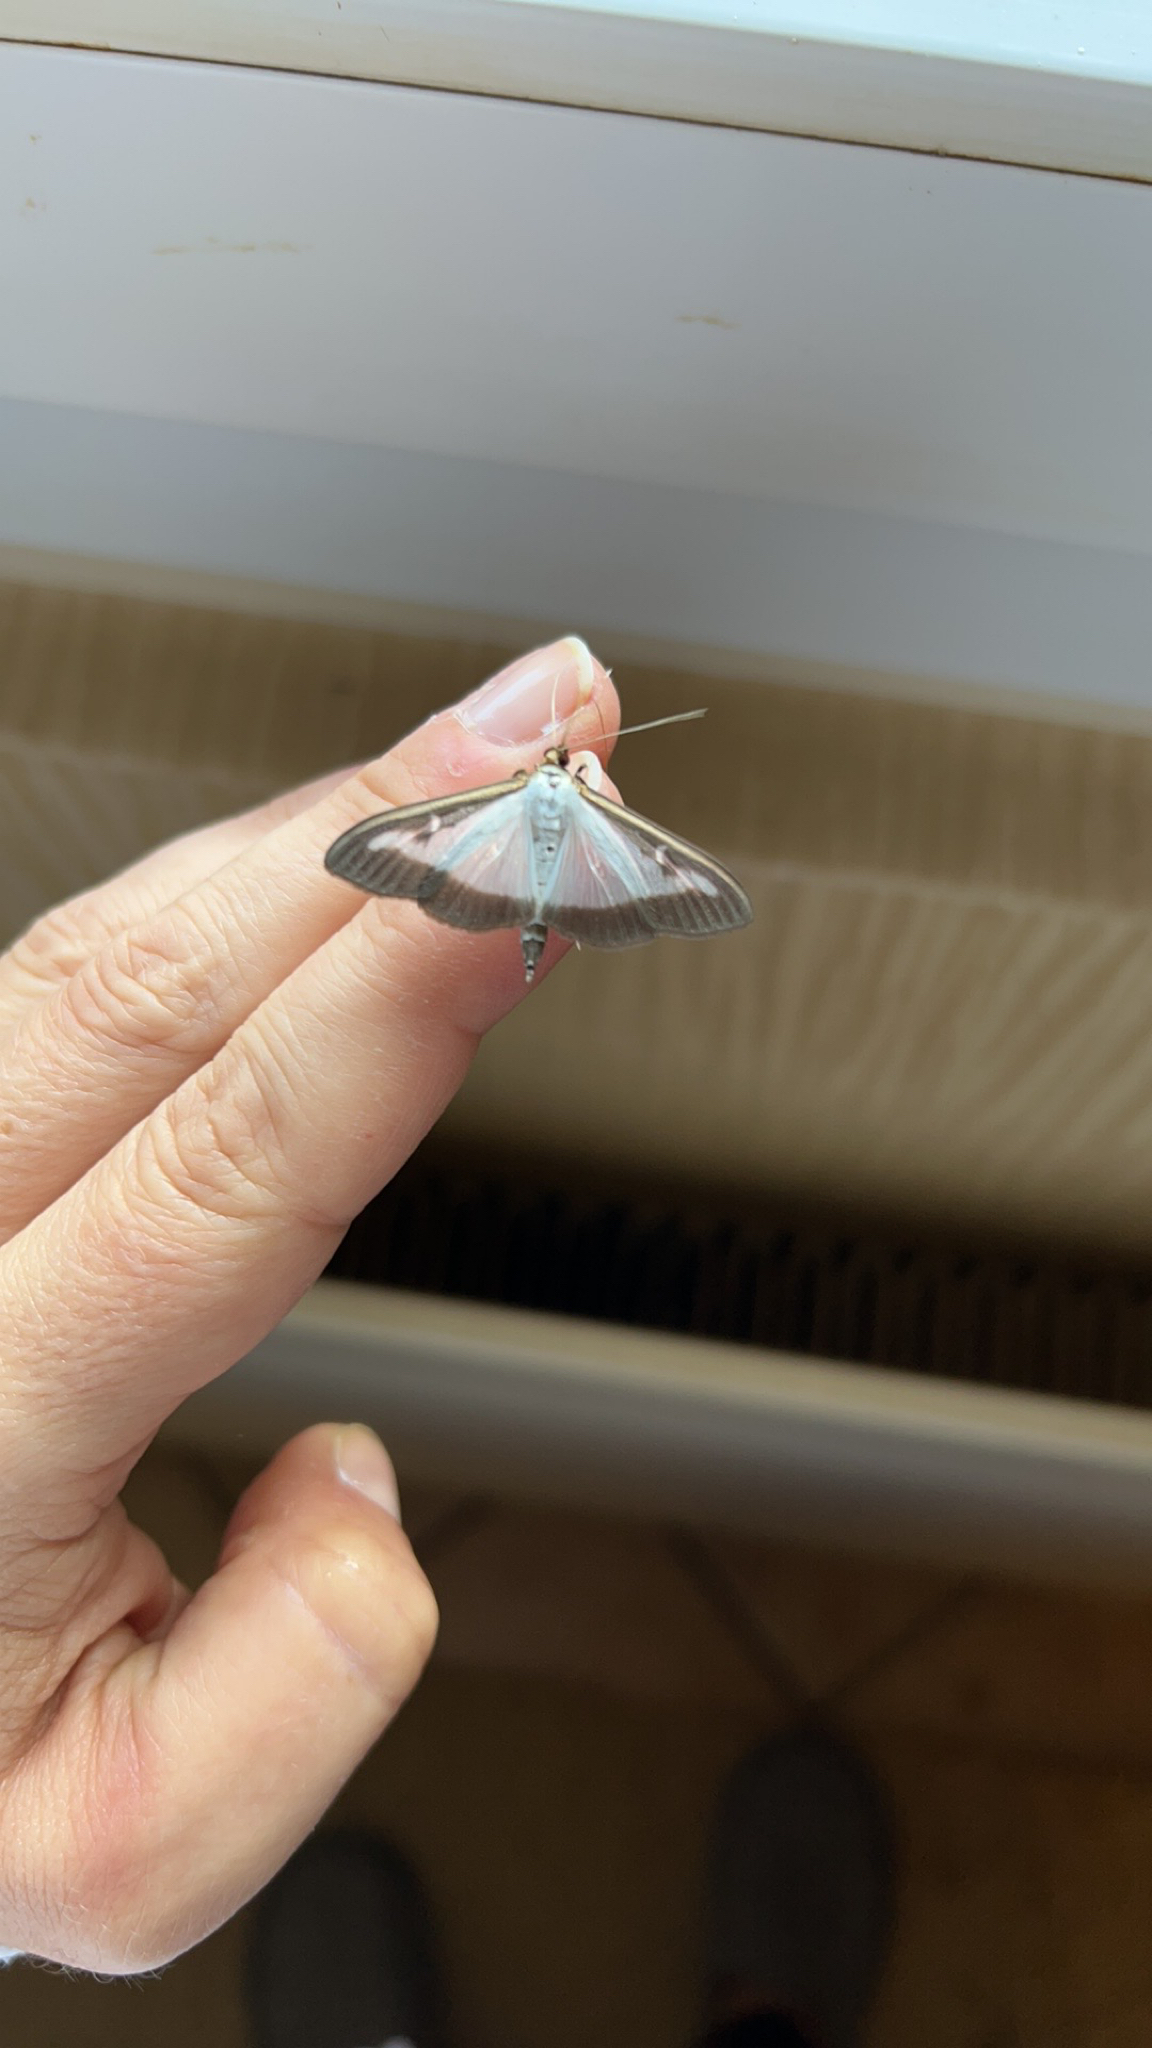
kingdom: Animalia
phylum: Arthropoda
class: Insecta
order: Lepidoptera
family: Crambidae
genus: Cydalima
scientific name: Cydalima perspectalis
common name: Box tree moth
